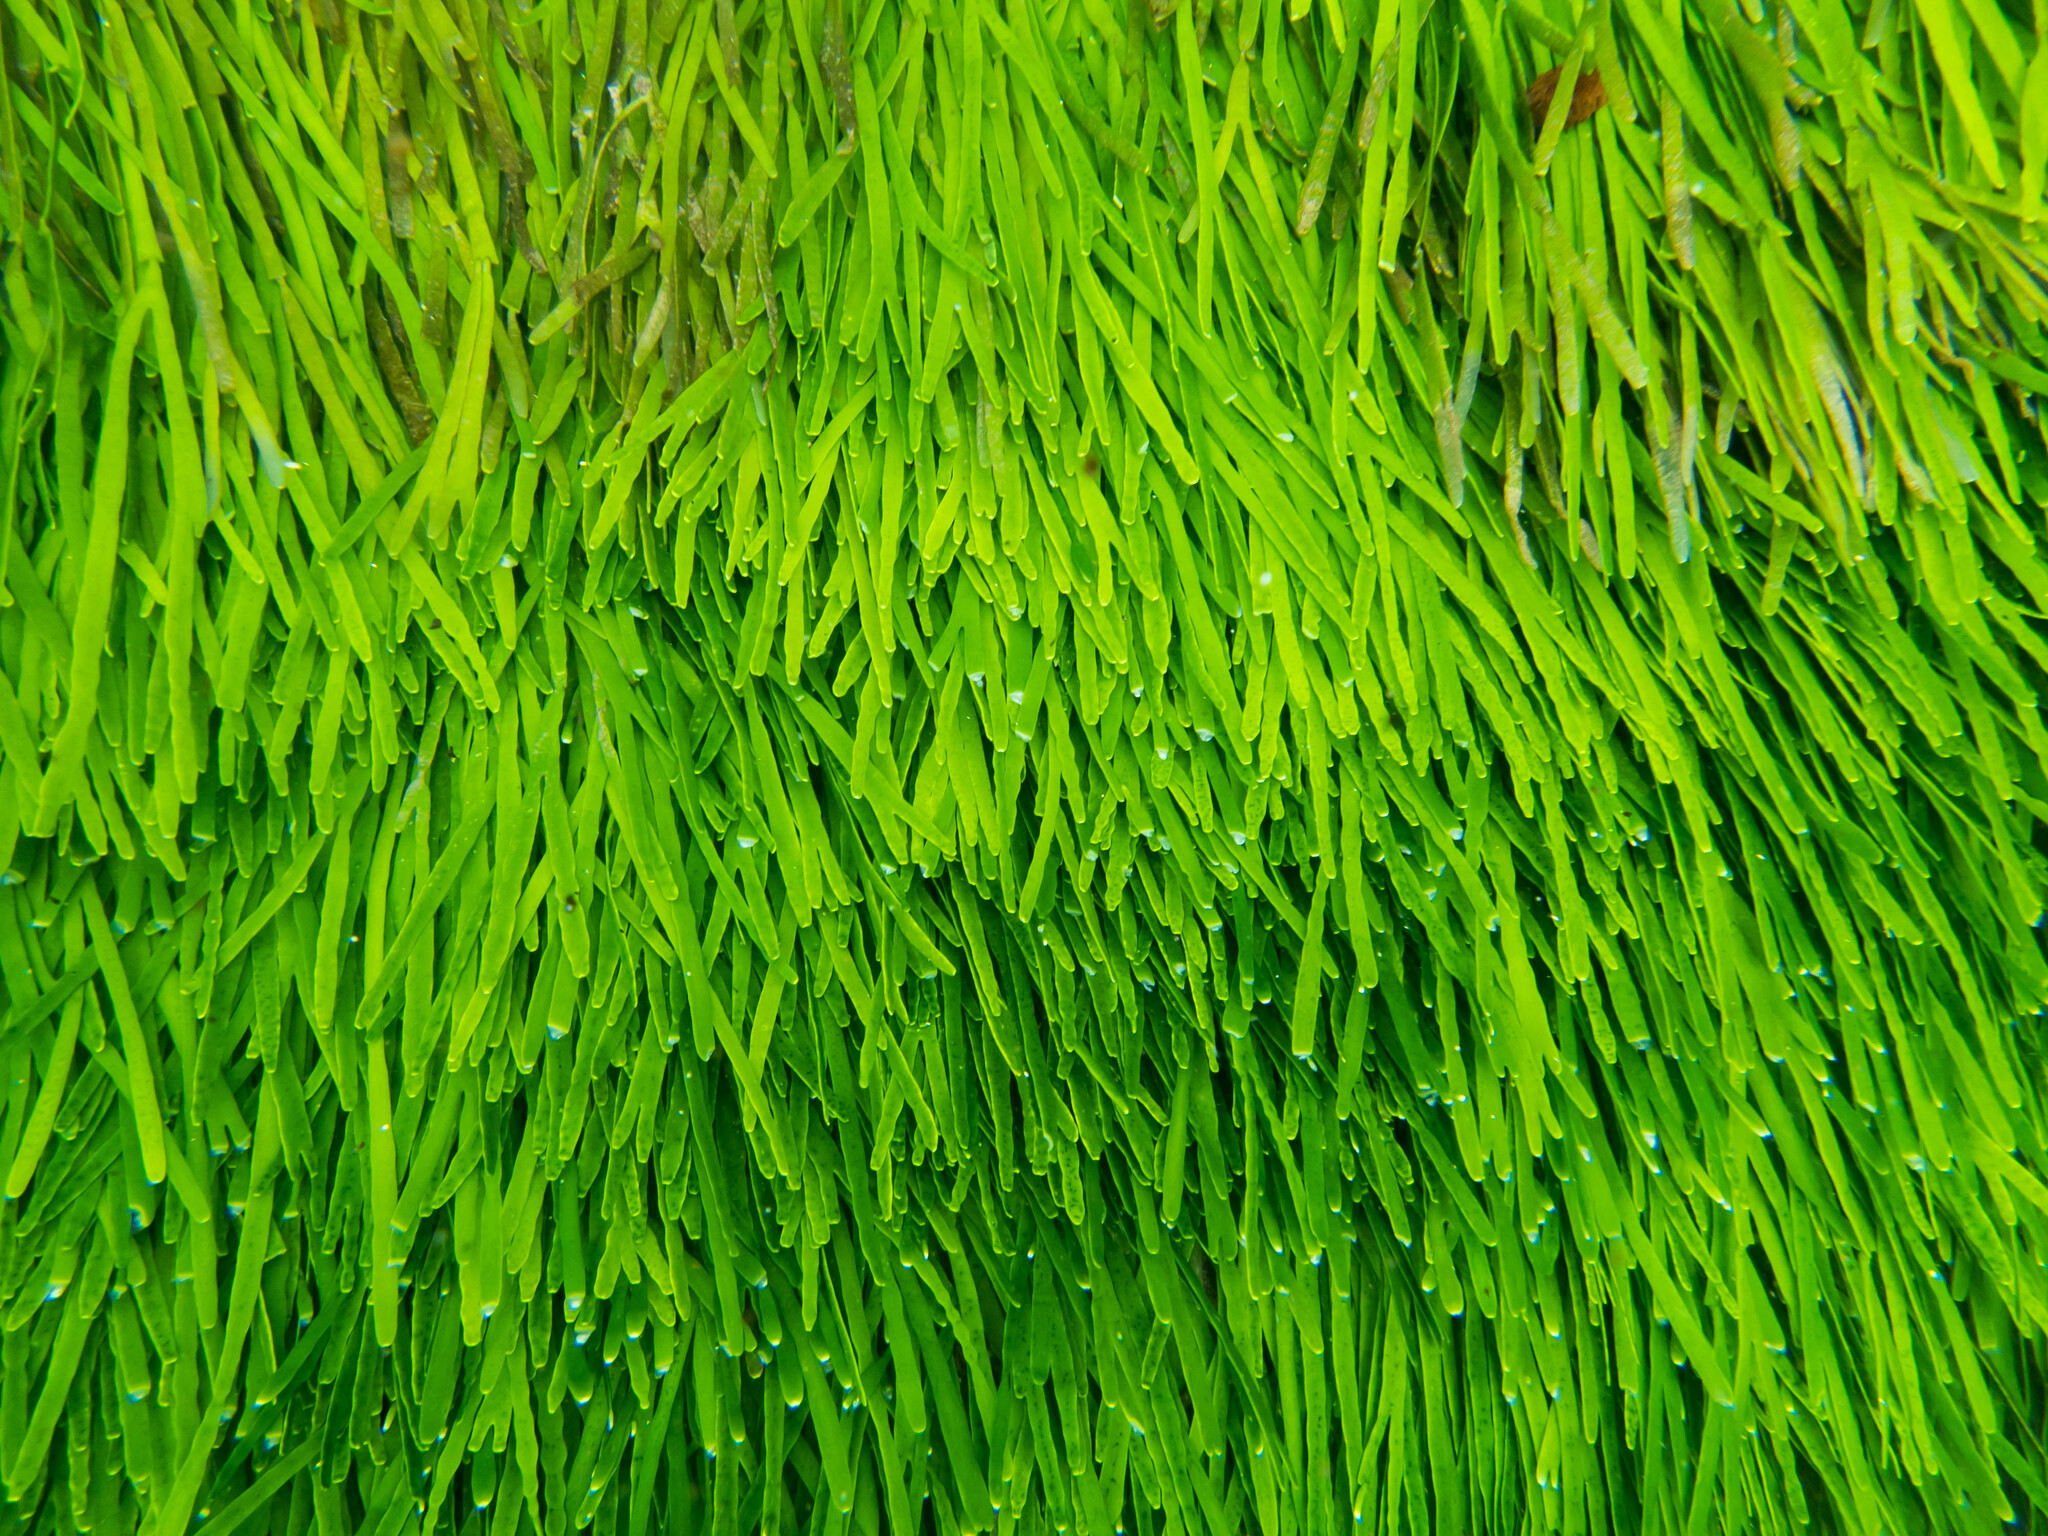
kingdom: Plantae
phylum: Chlorophyta
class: Ulvophyceae
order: Bryopsidales
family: Caulerpaceae
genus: Caulerpa
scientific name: Caulerpa filiformis
